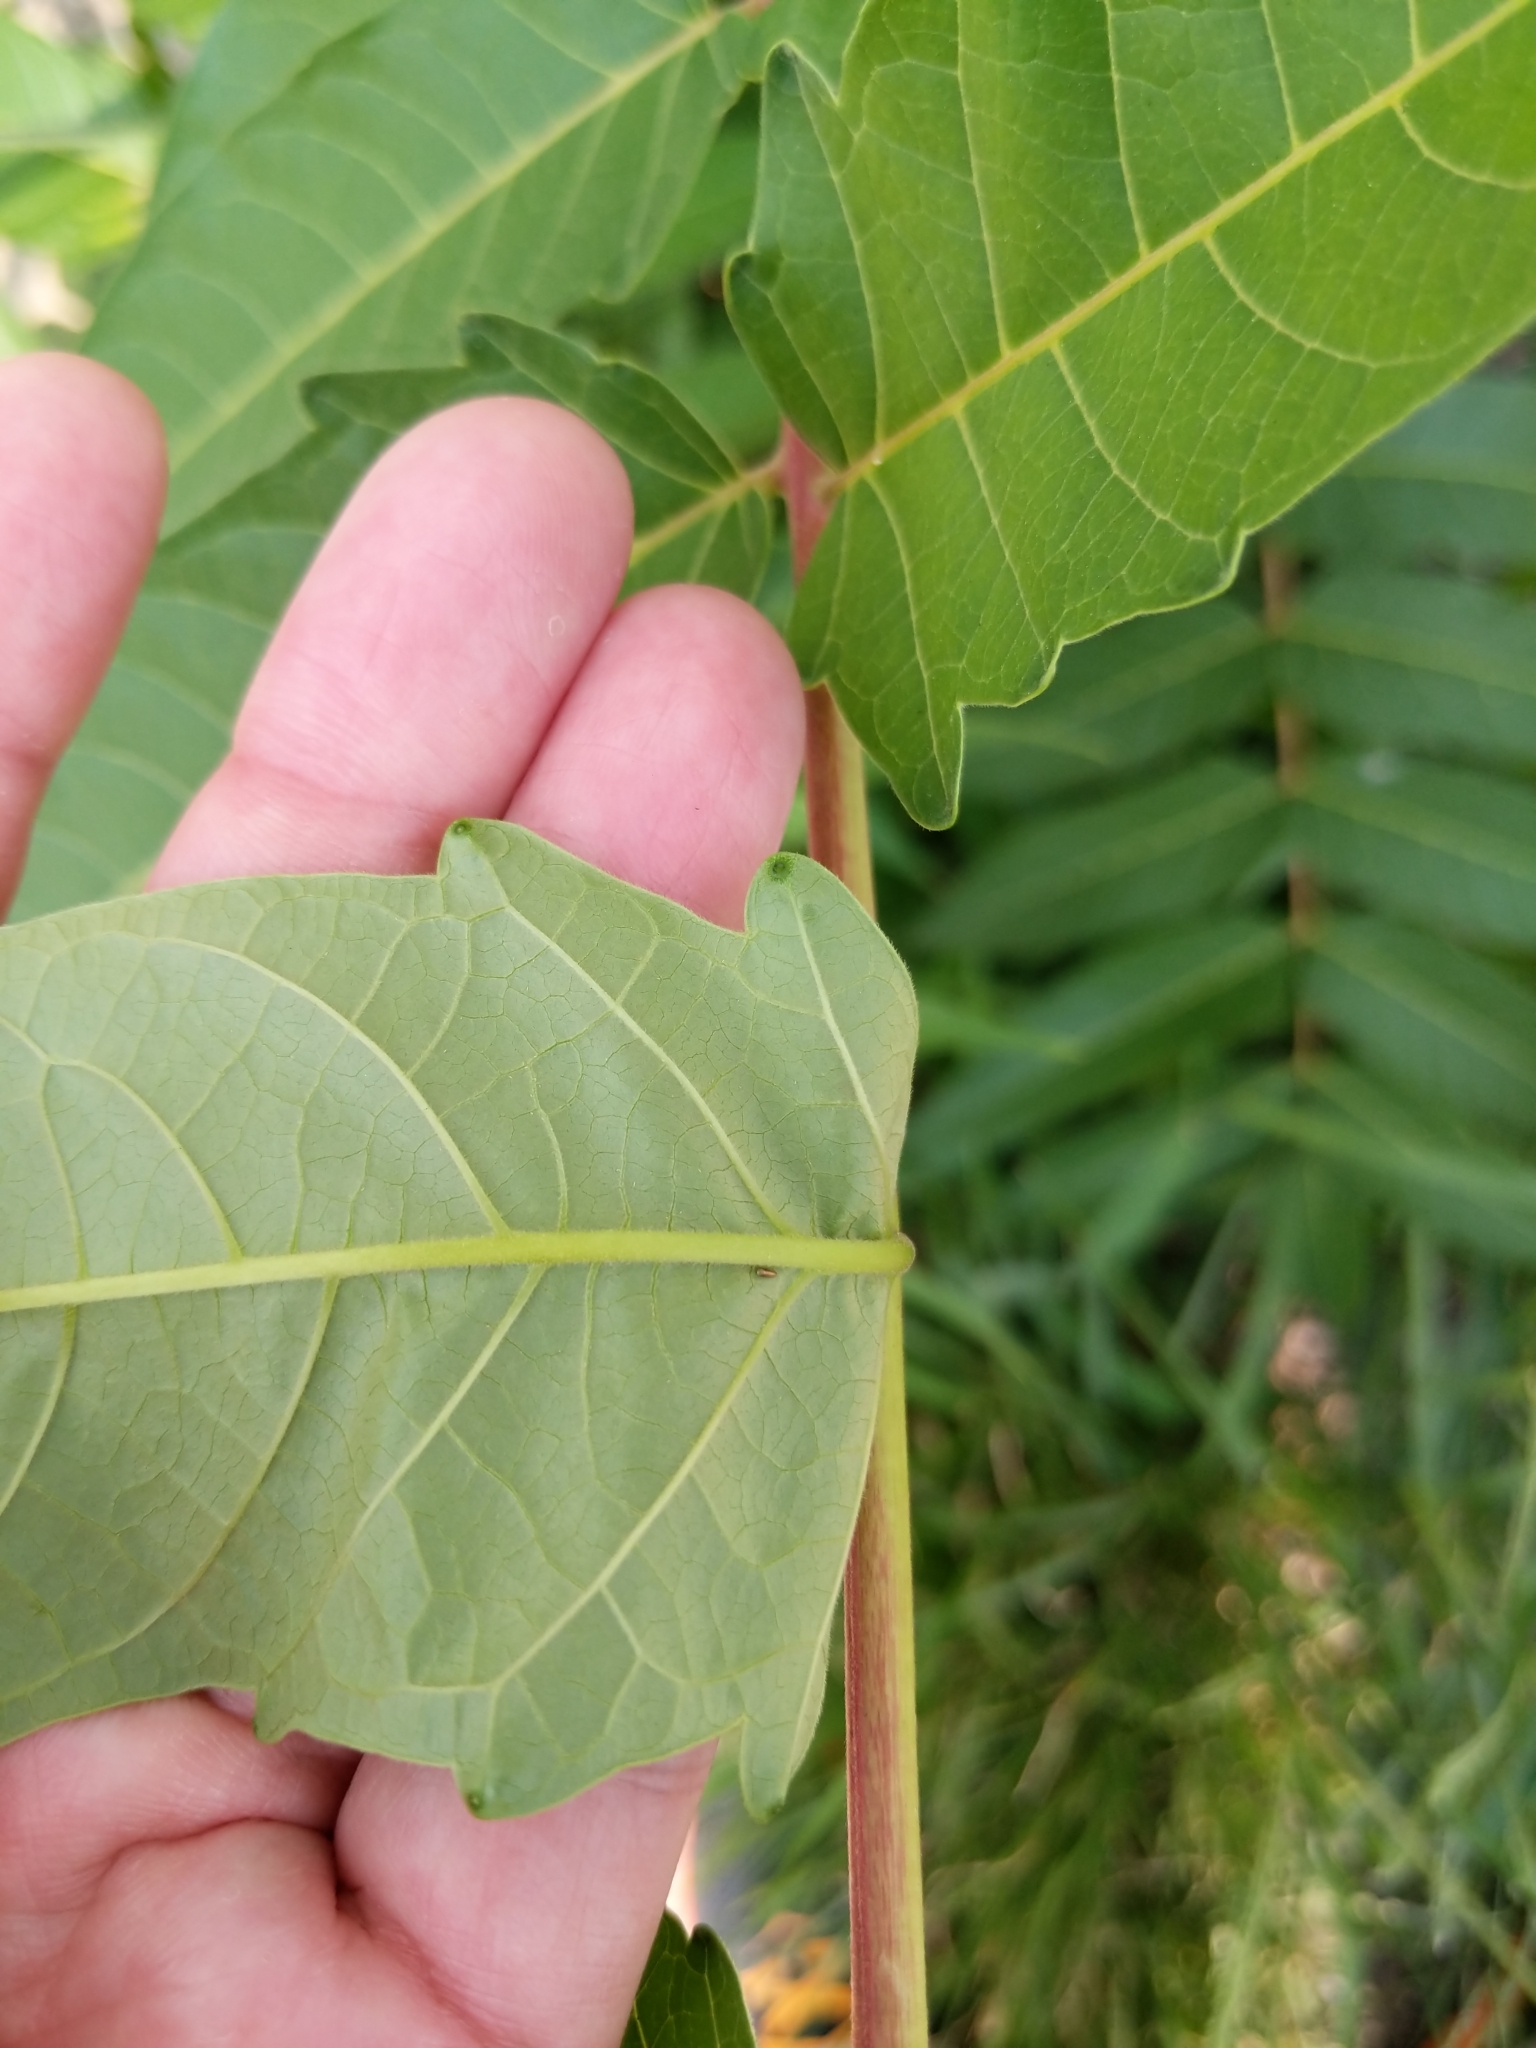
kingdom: Plantae
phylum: Tracheophyta
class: Magnoliopsida
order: Sapindales
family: Simaroubaceae
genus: Ailanthus
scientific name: Ailanthus altissima
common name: Tree-of-heaven
